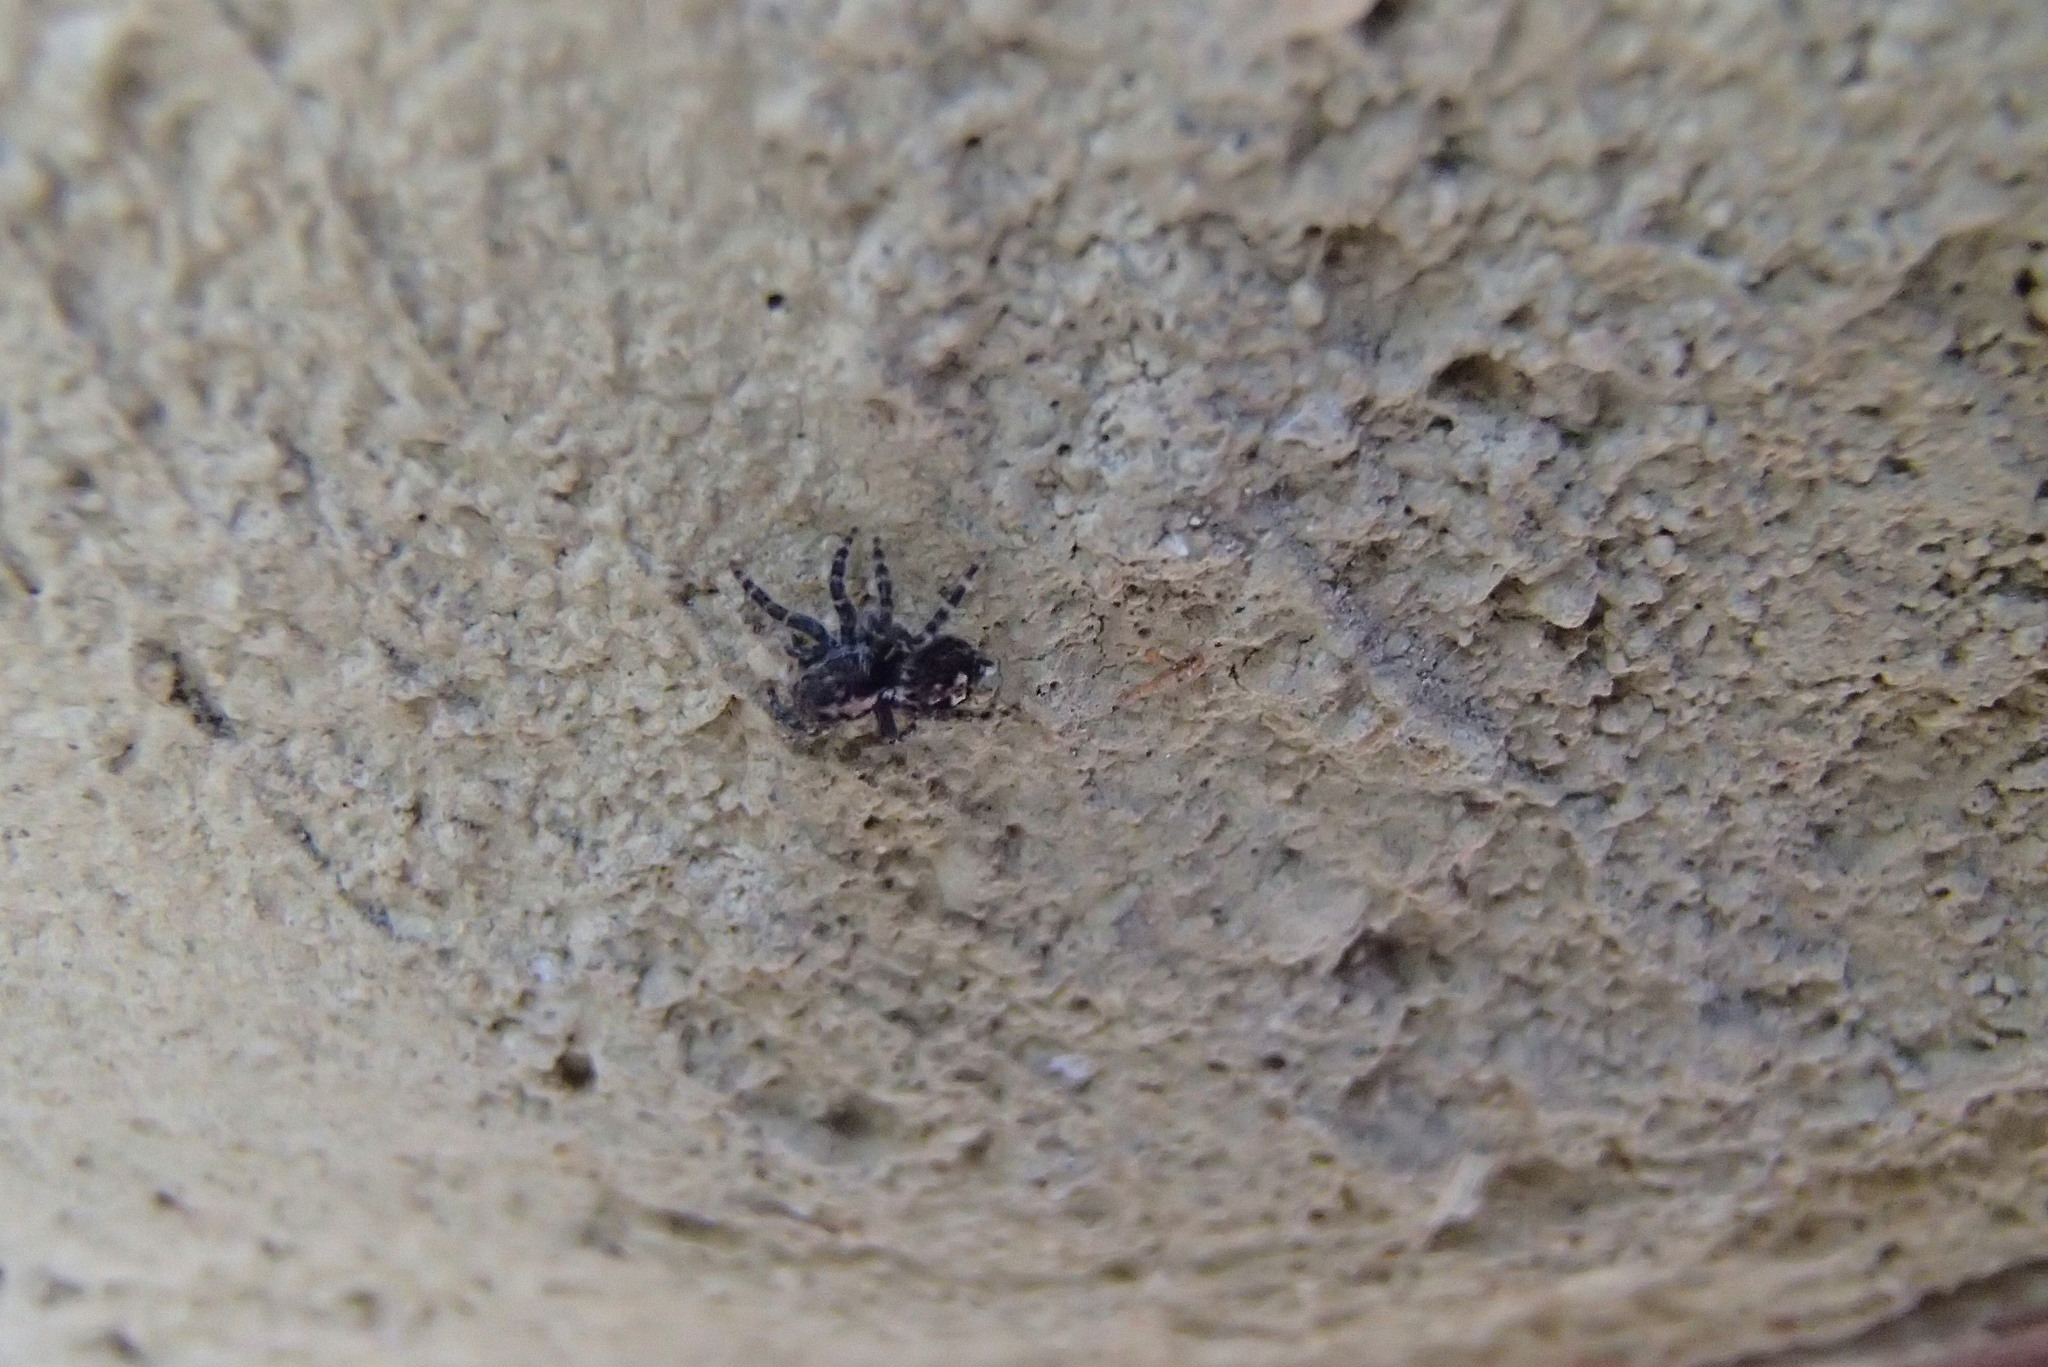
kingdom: Animalia
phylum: Arthropoda
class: Arachnida
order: Araneae
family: Salticidae
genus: Maratus
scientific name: Maratus expolitus
